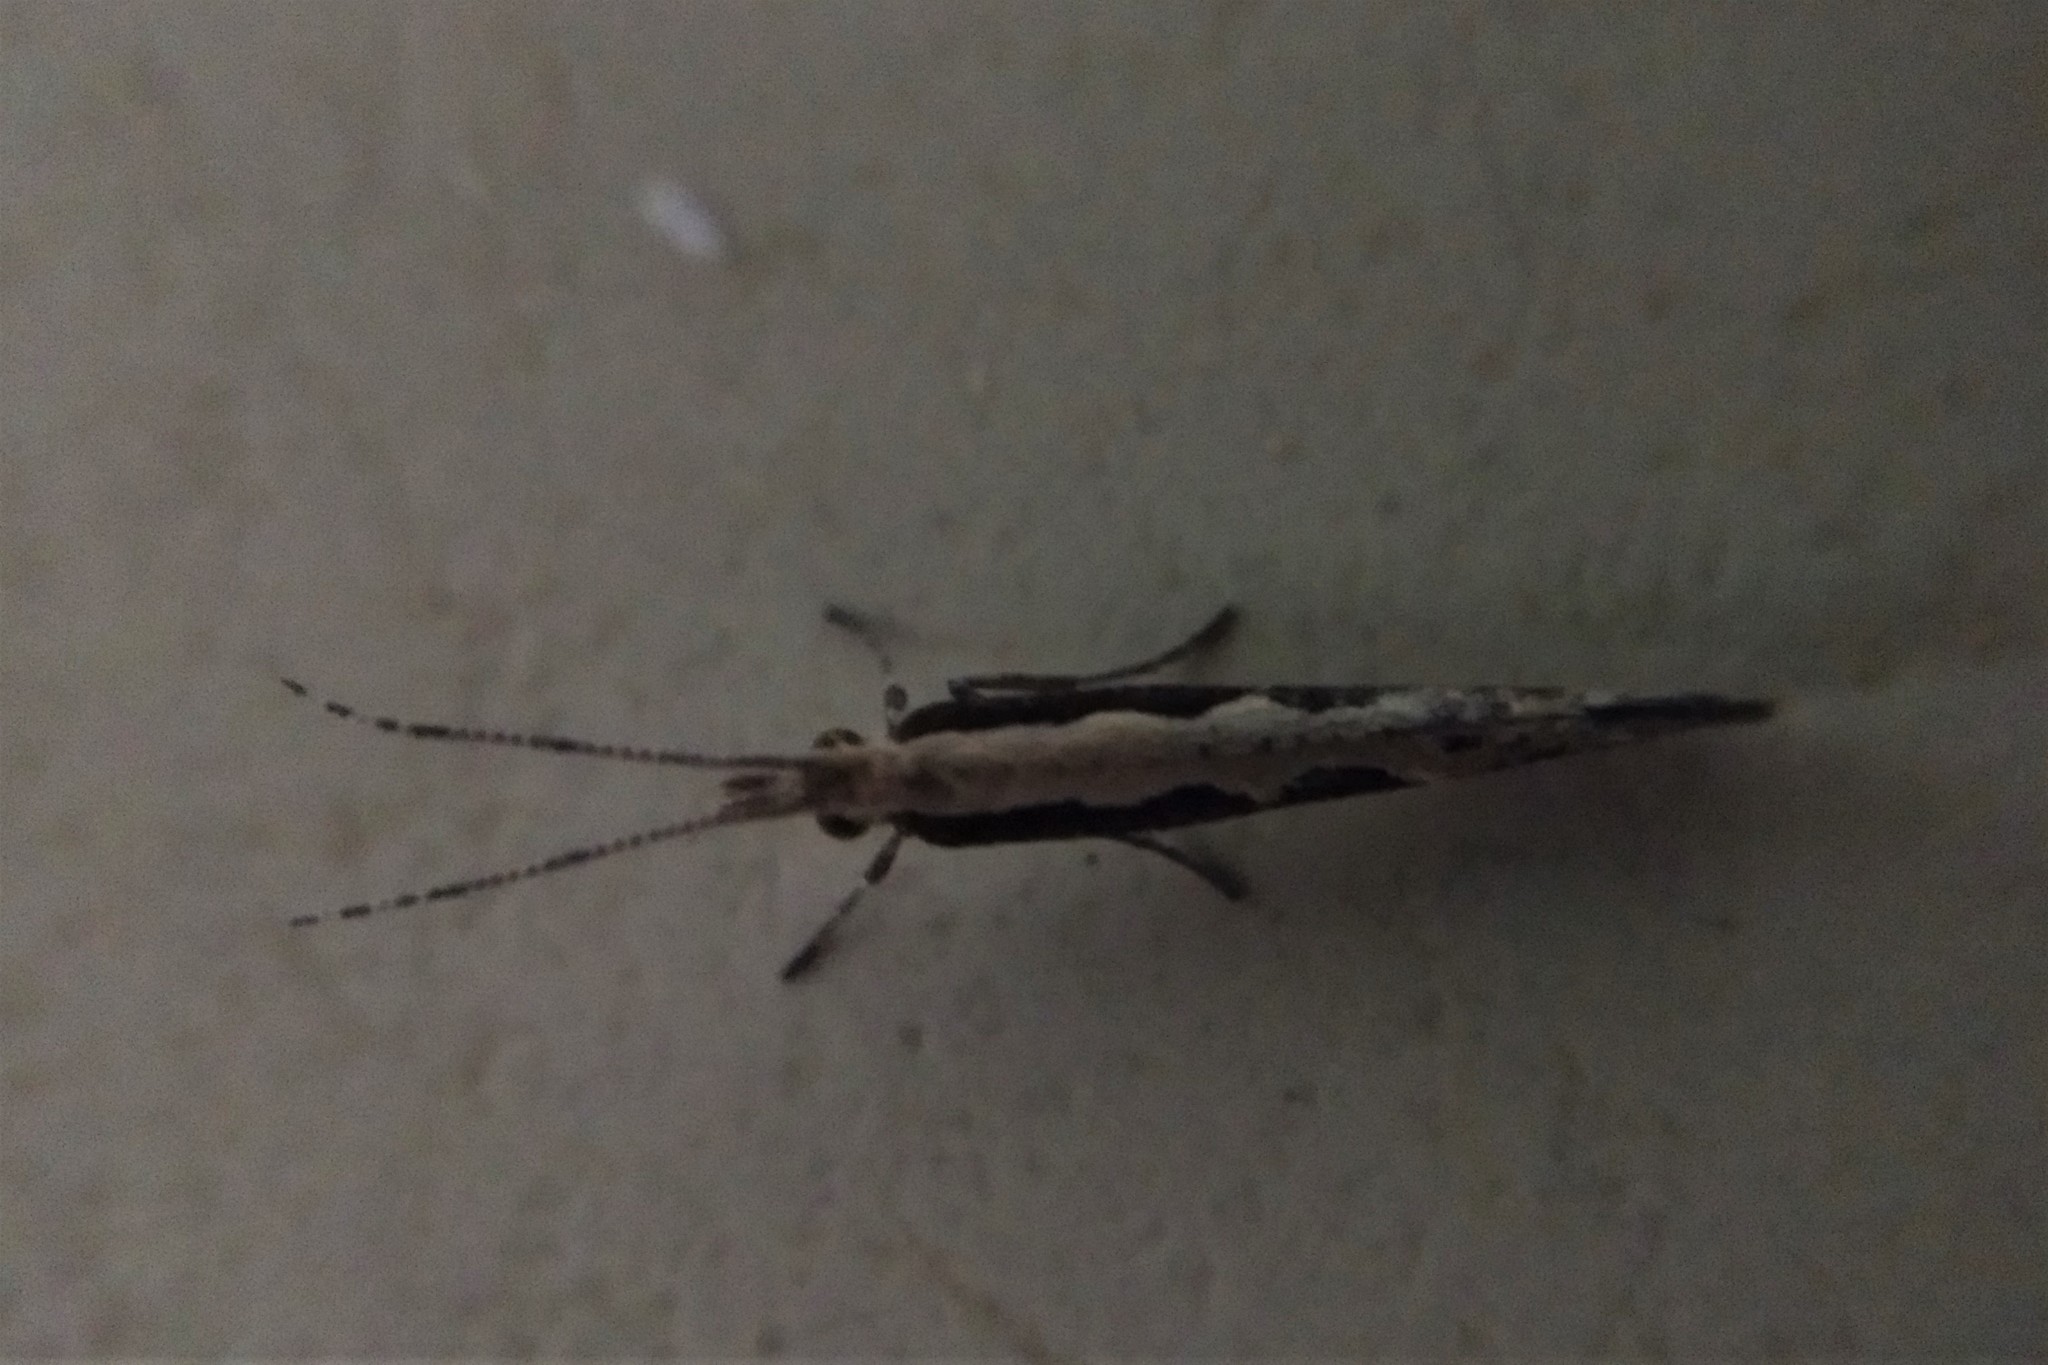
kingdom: Animalia
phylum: Arthropoda
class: Insecta
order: Lepidoptera
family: Plutellidae
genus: Plutella
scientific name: Plutella xylostella
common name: Diamond-back moth
